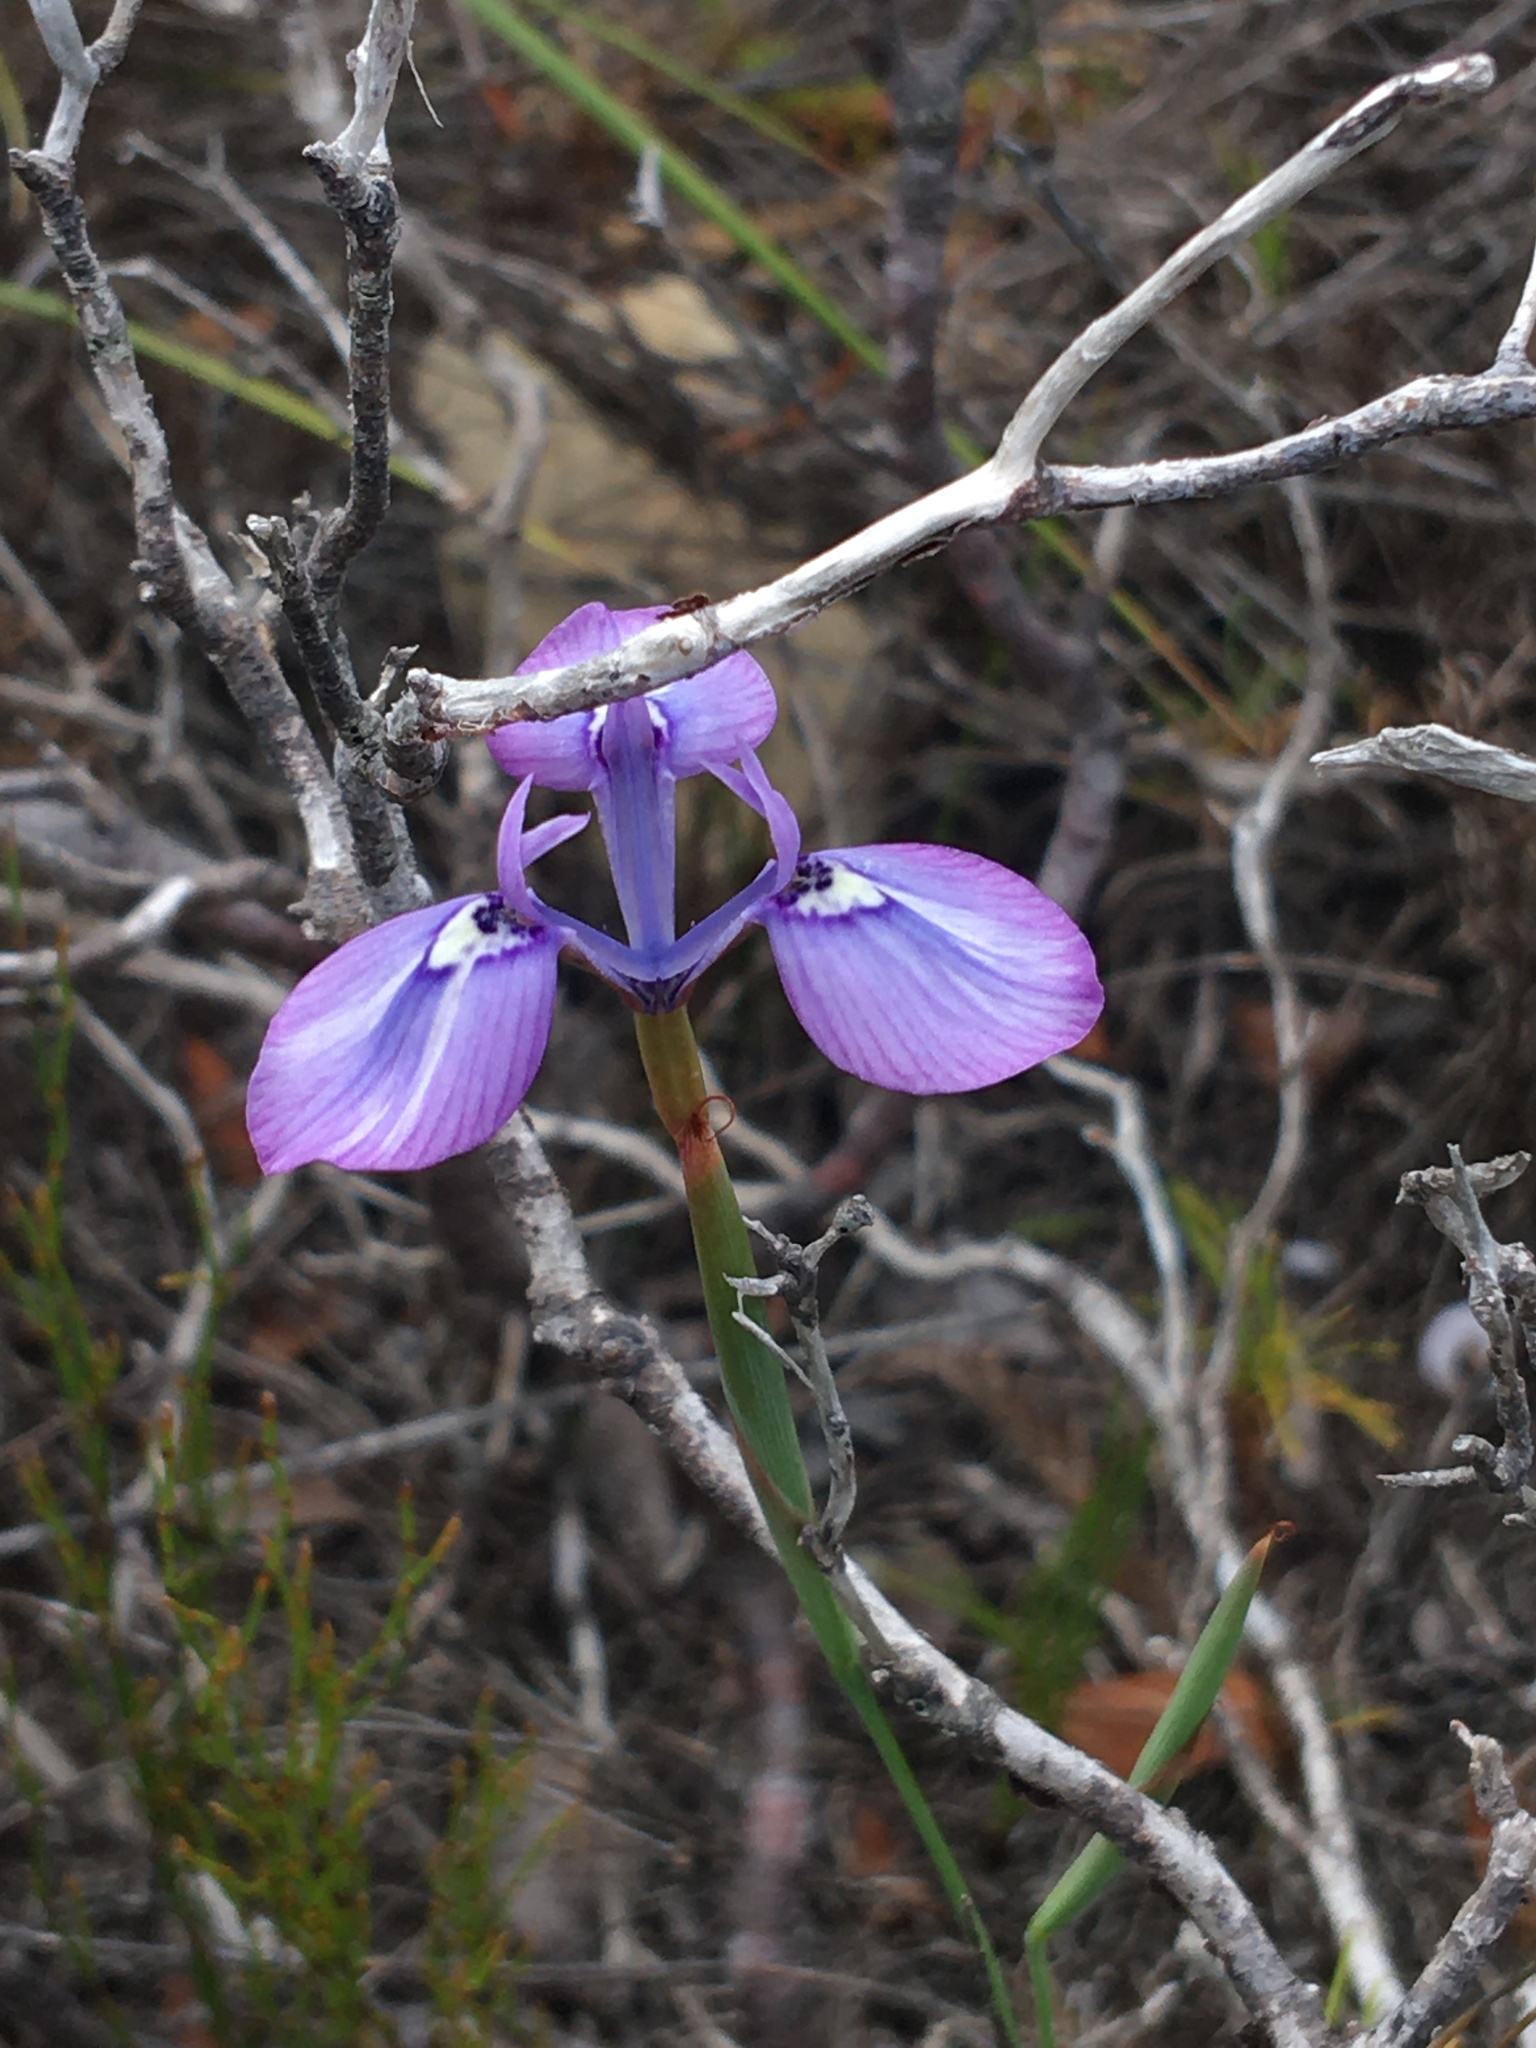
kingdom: Plantae
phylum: Tracheophyta
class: Liliopsida
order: Asparagales
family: Iridaceae
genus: Moraea
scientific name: Moraea tripetala
